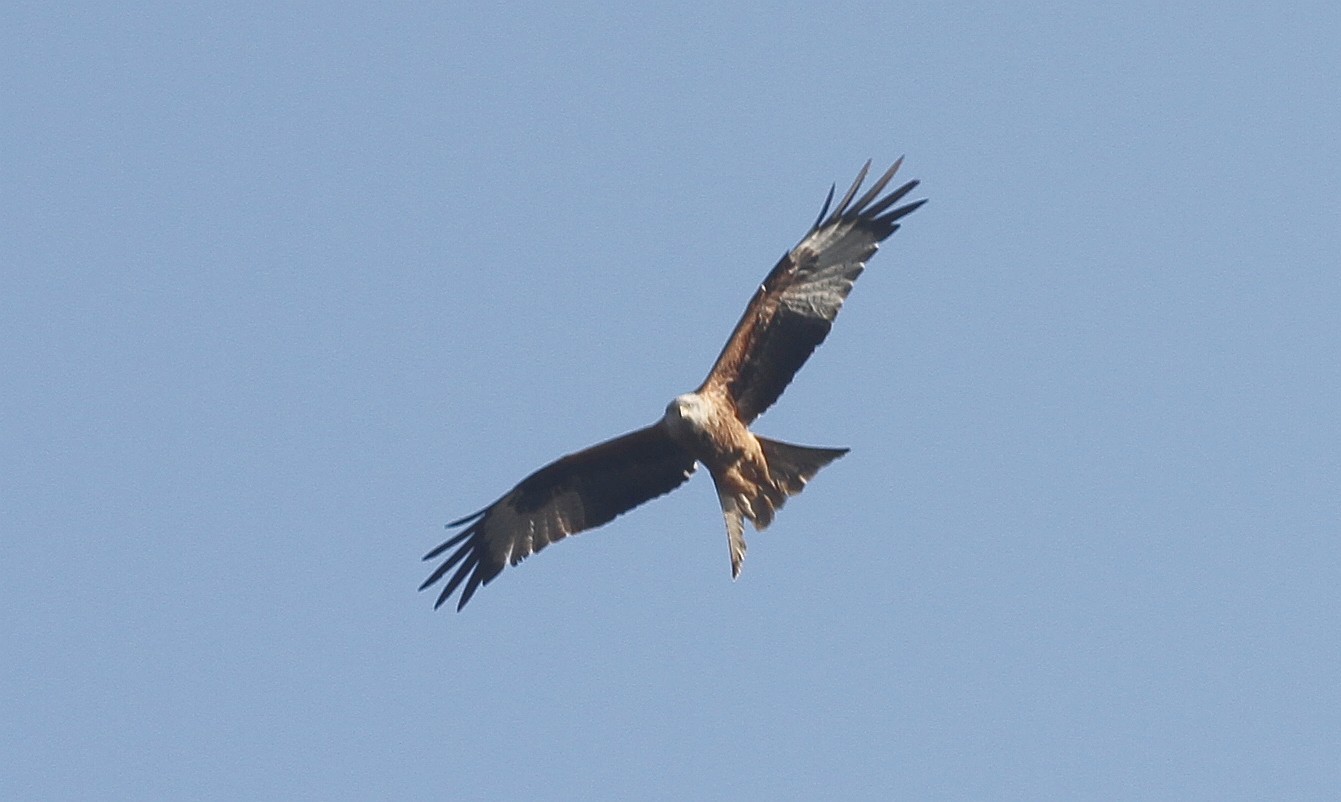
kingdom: Animalia
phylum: Chordata
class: Aves
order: Accipitriformes
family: Accipitridae
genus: Milvus
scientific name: Milvus milvus
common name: Red kite
